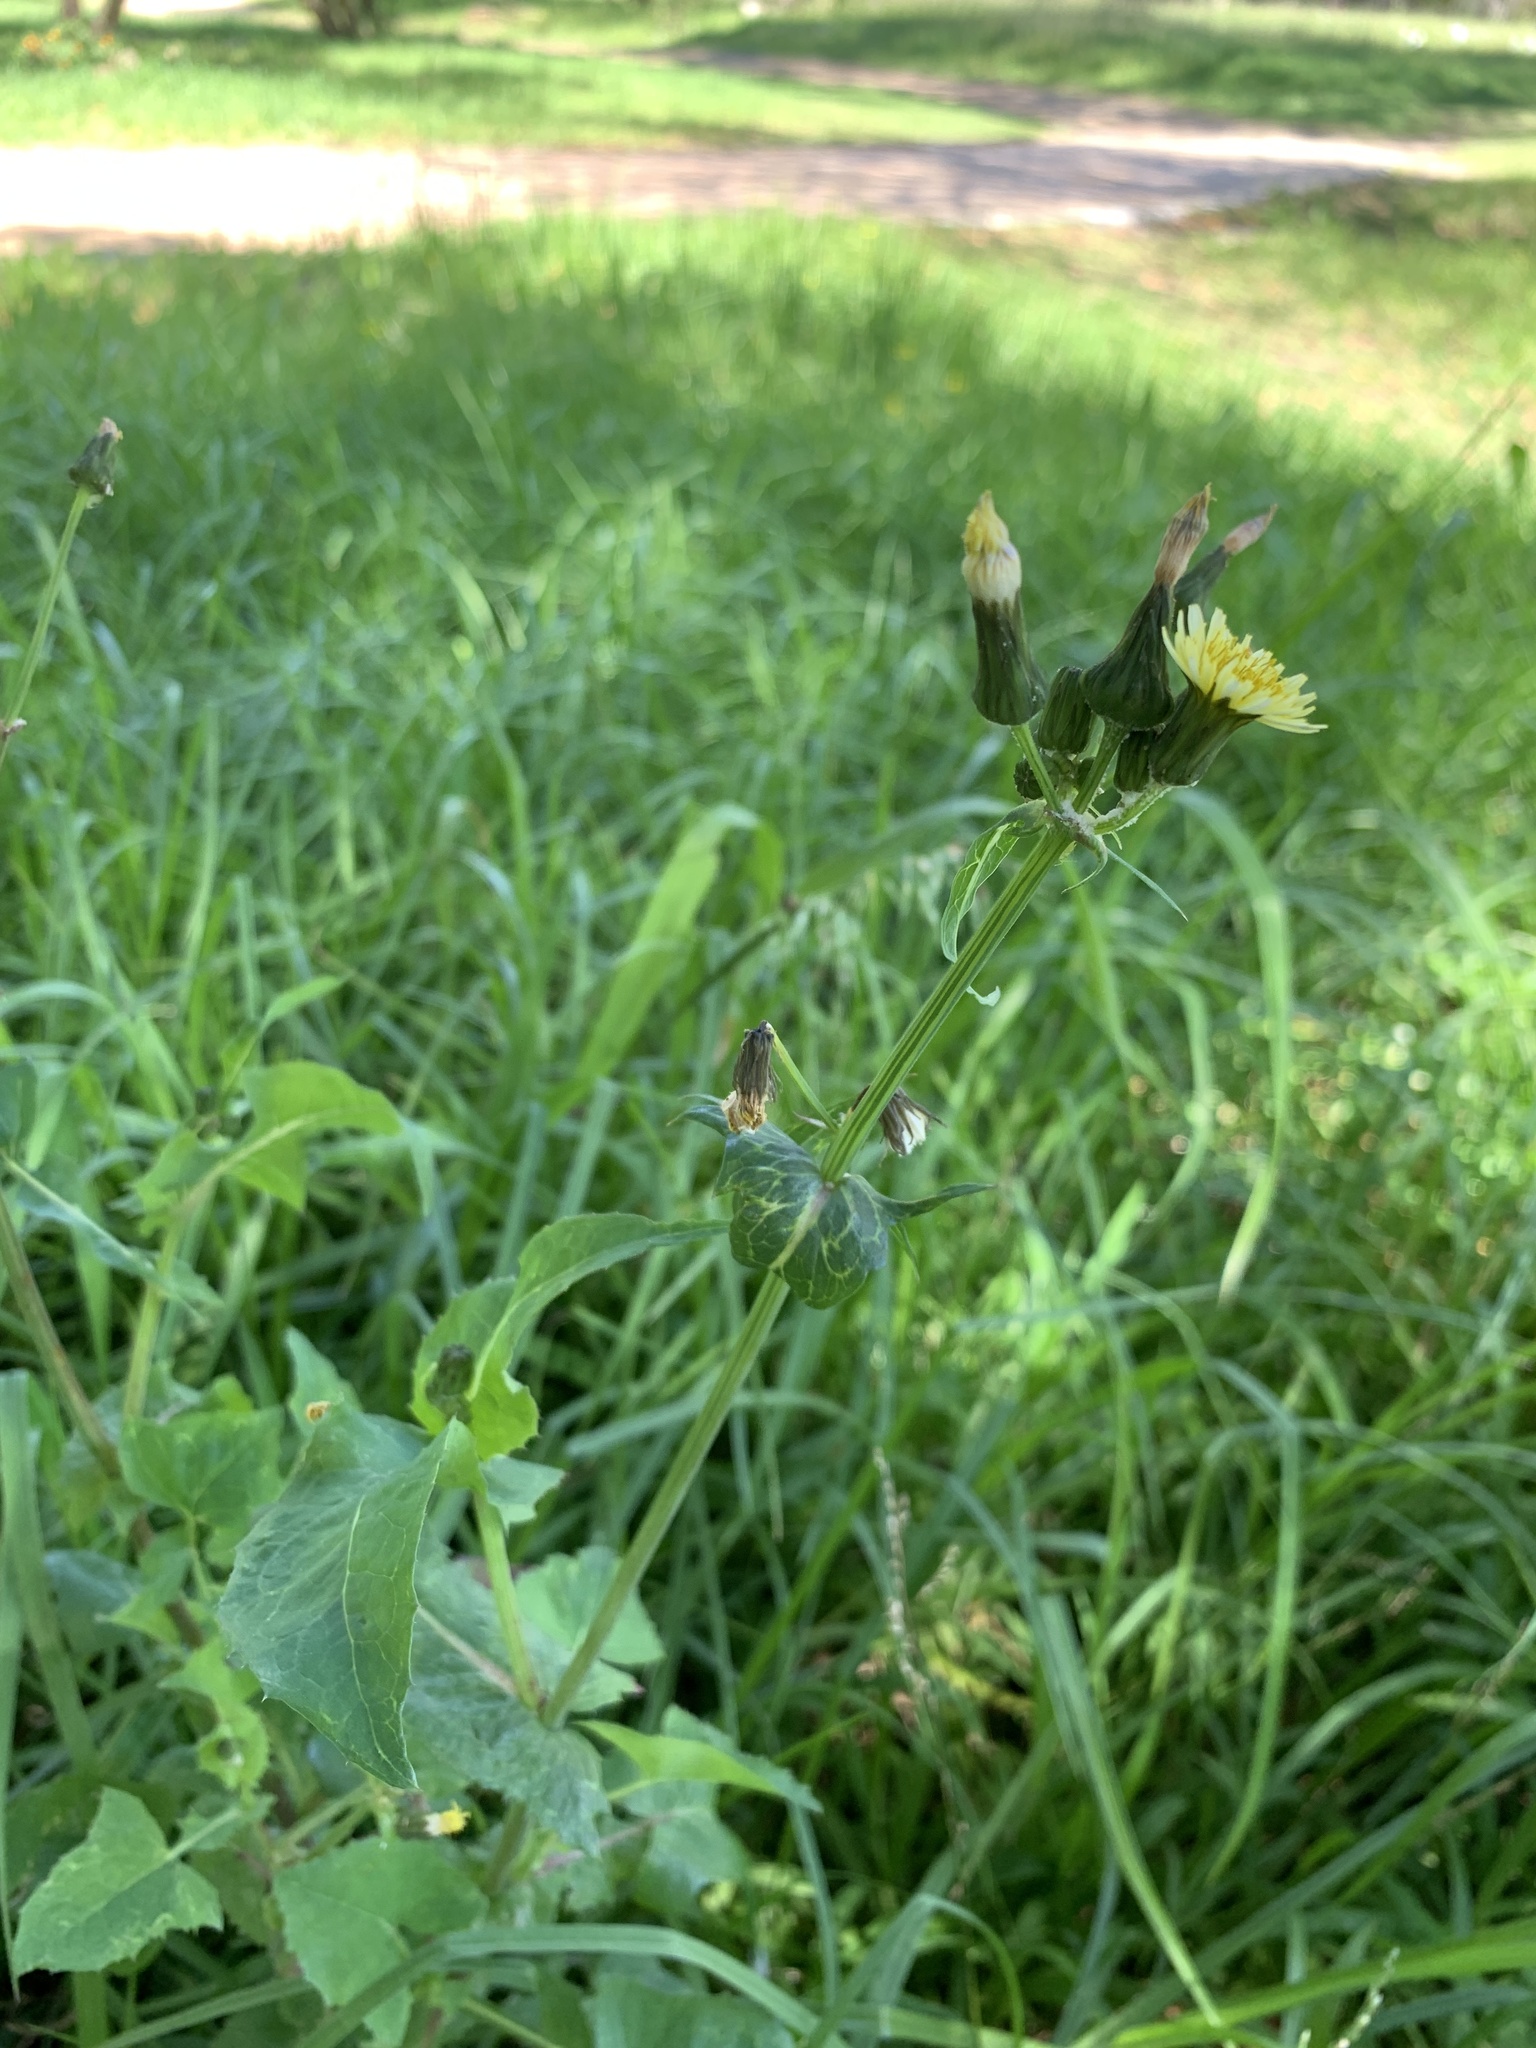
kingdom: Plantae
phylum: Tracheophyta
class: Magnoliopsida
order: Asterales
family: Asteraceae
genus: Sonchus
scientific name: Sonchus oleraceus
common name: Common sowthistle
